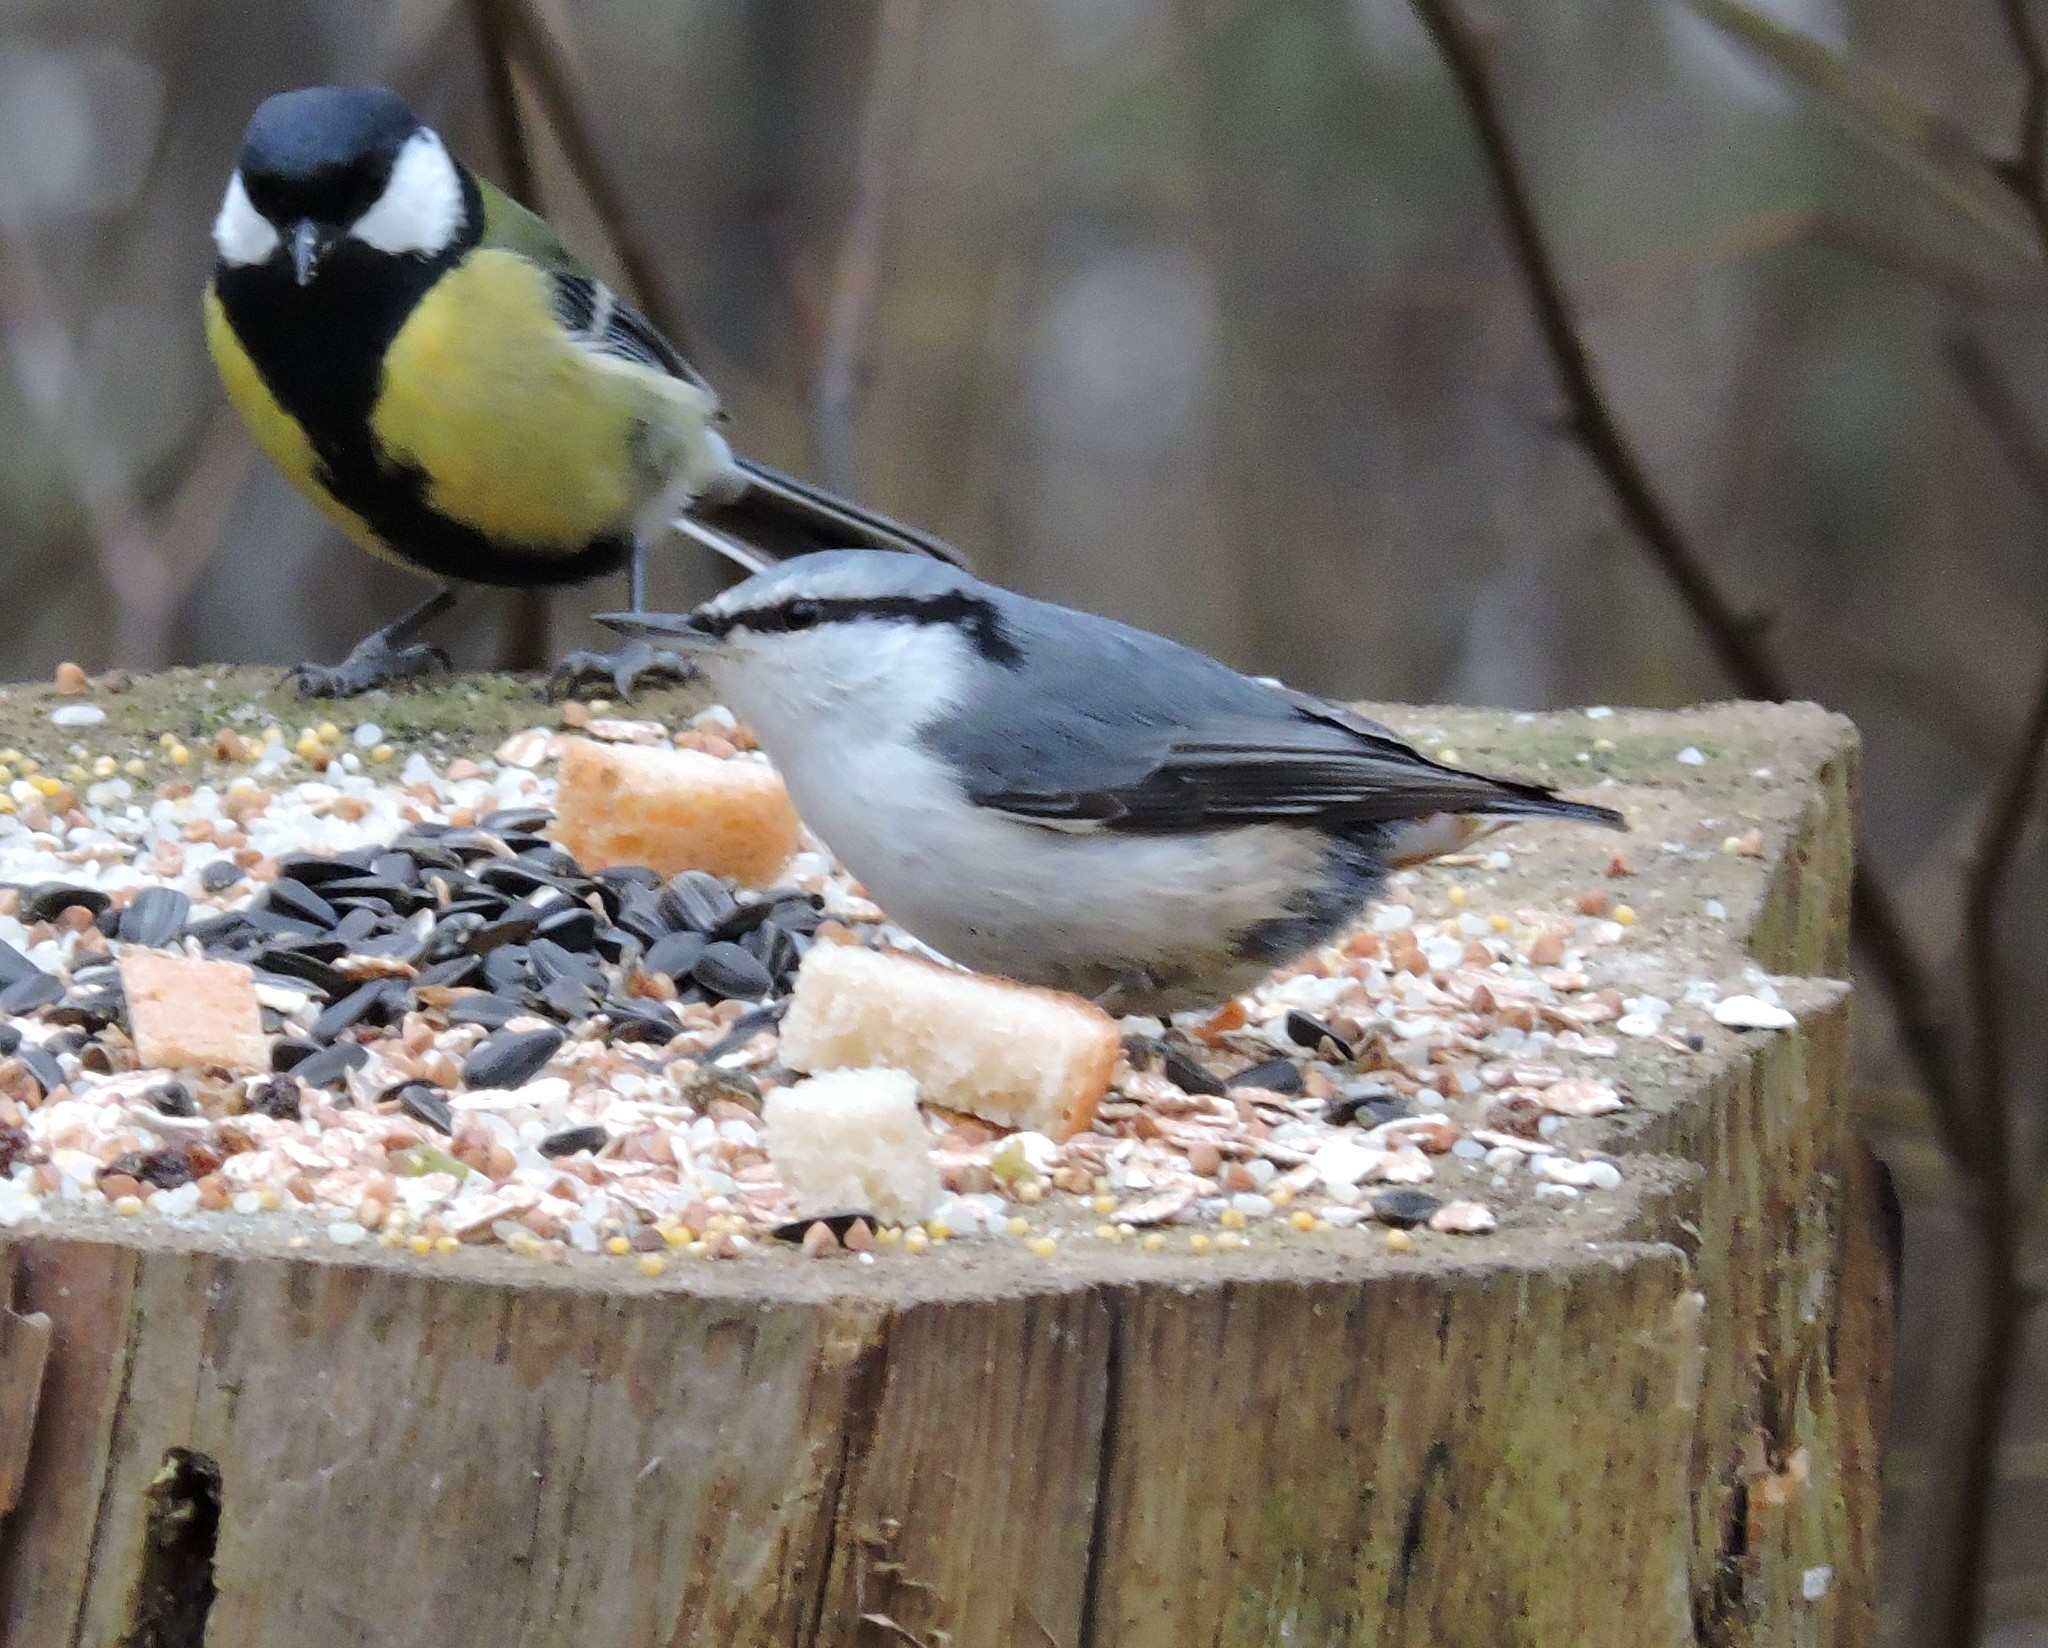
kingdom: Animalia
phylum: Chordata
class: Aves
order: Passeriformes
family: Paridae
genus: Parus
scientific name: Parus major
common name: Great tit
